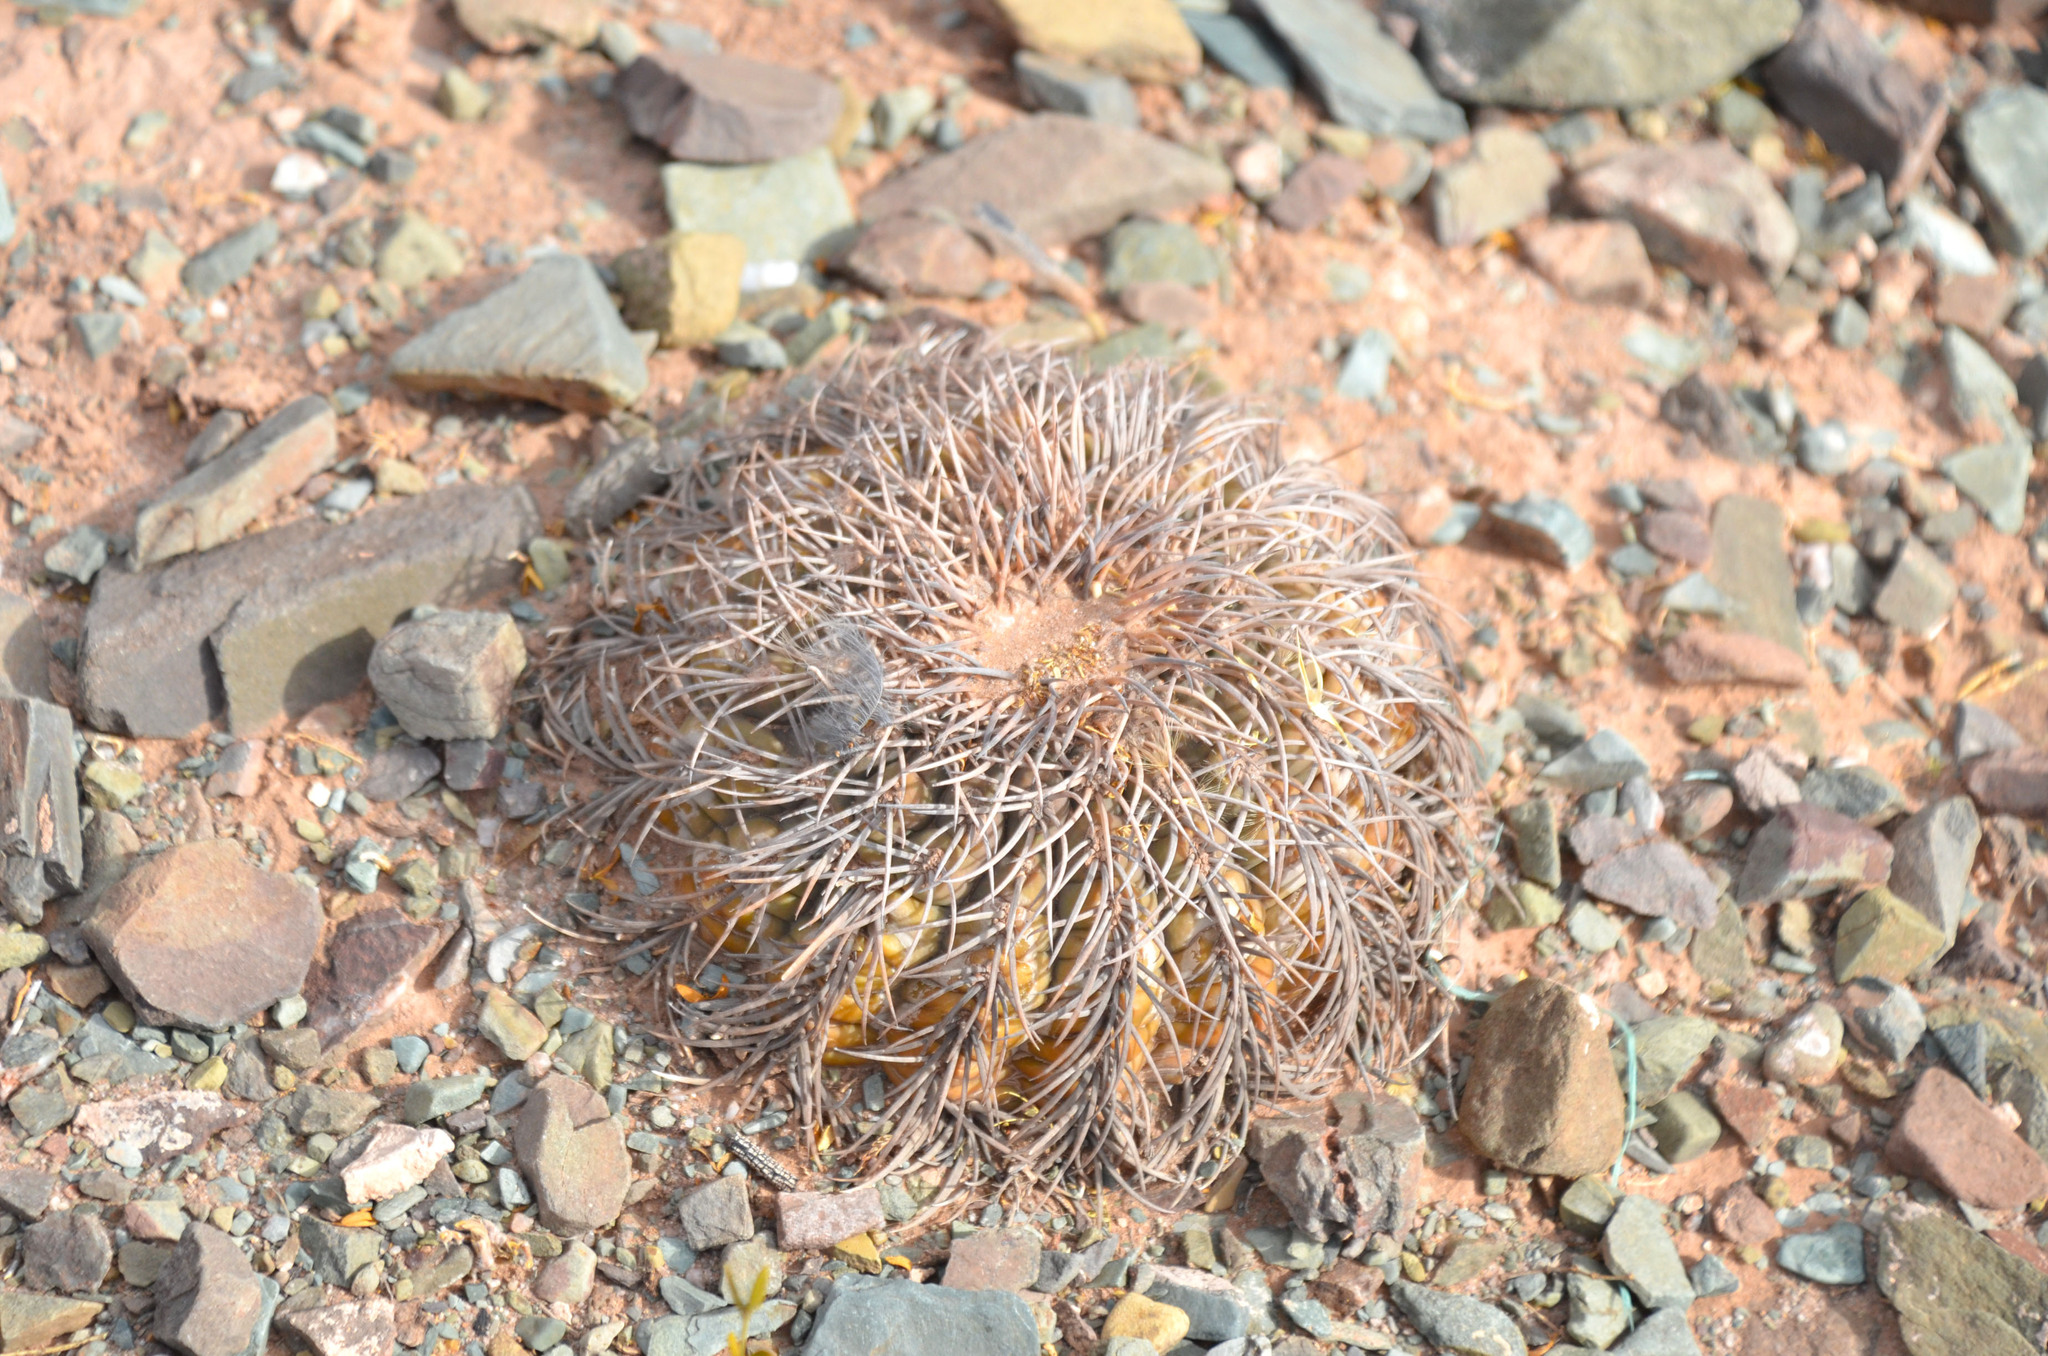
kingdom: Plantae
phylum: Tracheophyta
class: Magnoliopsida
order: Caryophyllales
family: Cactaceae
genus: Gymnocalycium
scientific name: Gymnocalycium spegazzinii
